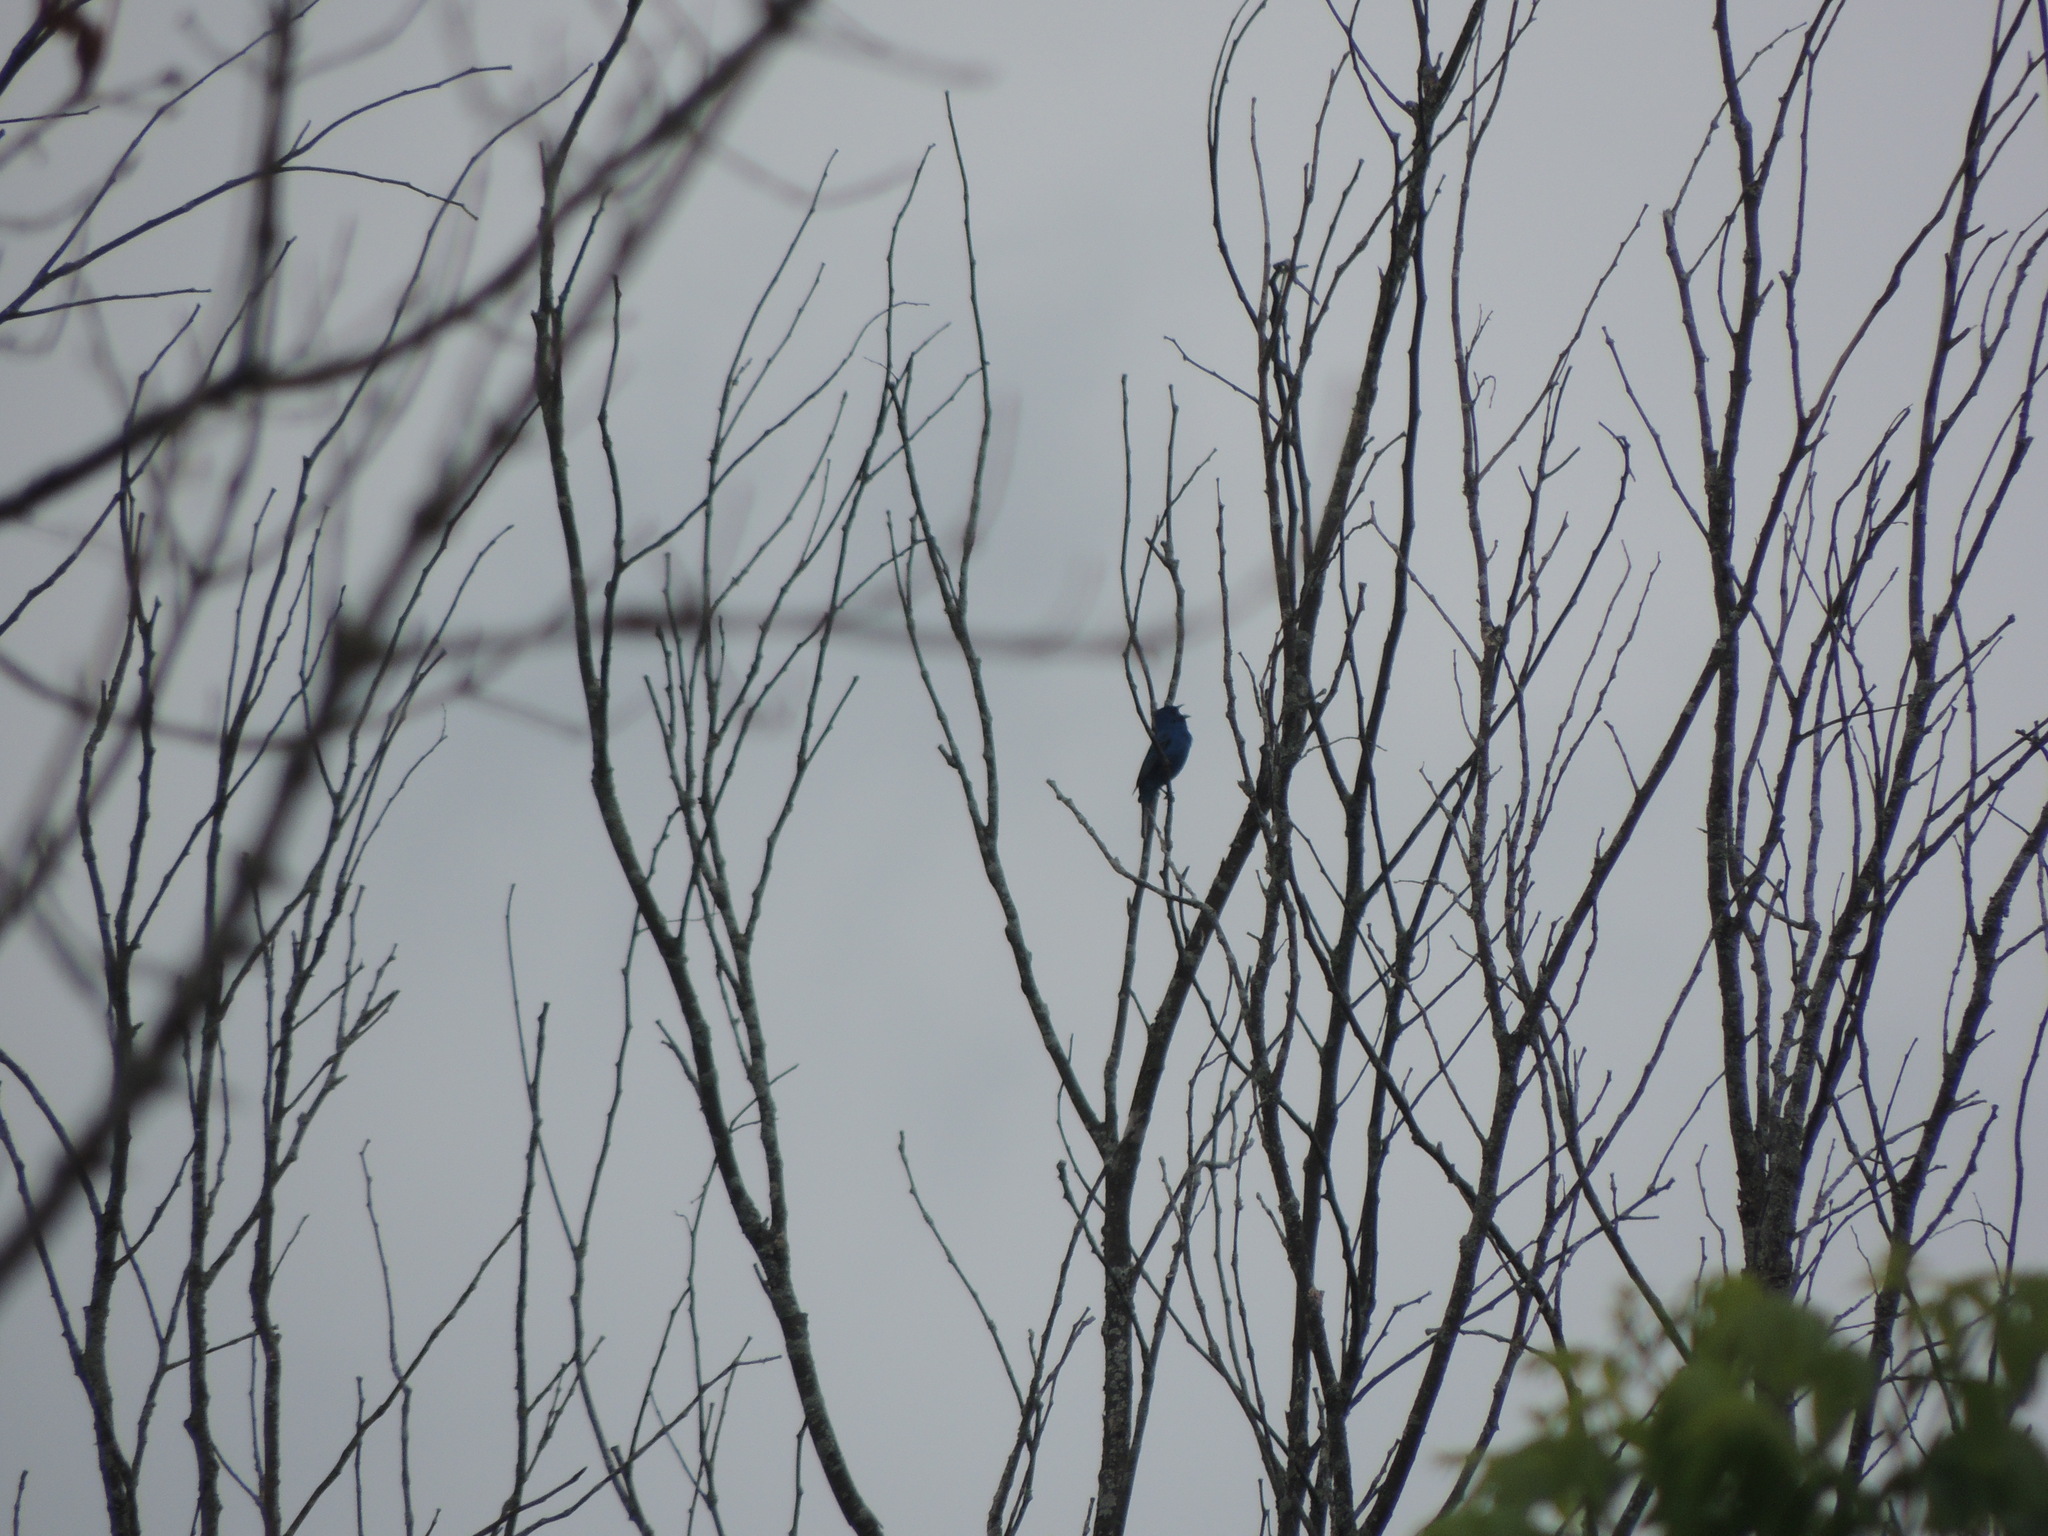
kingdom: Animalia
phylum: Chordata
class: Aves
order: Passeriformes
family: Cardinalidae
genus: Passerina
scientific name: Passerina cyanea
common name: Indigo bunting
